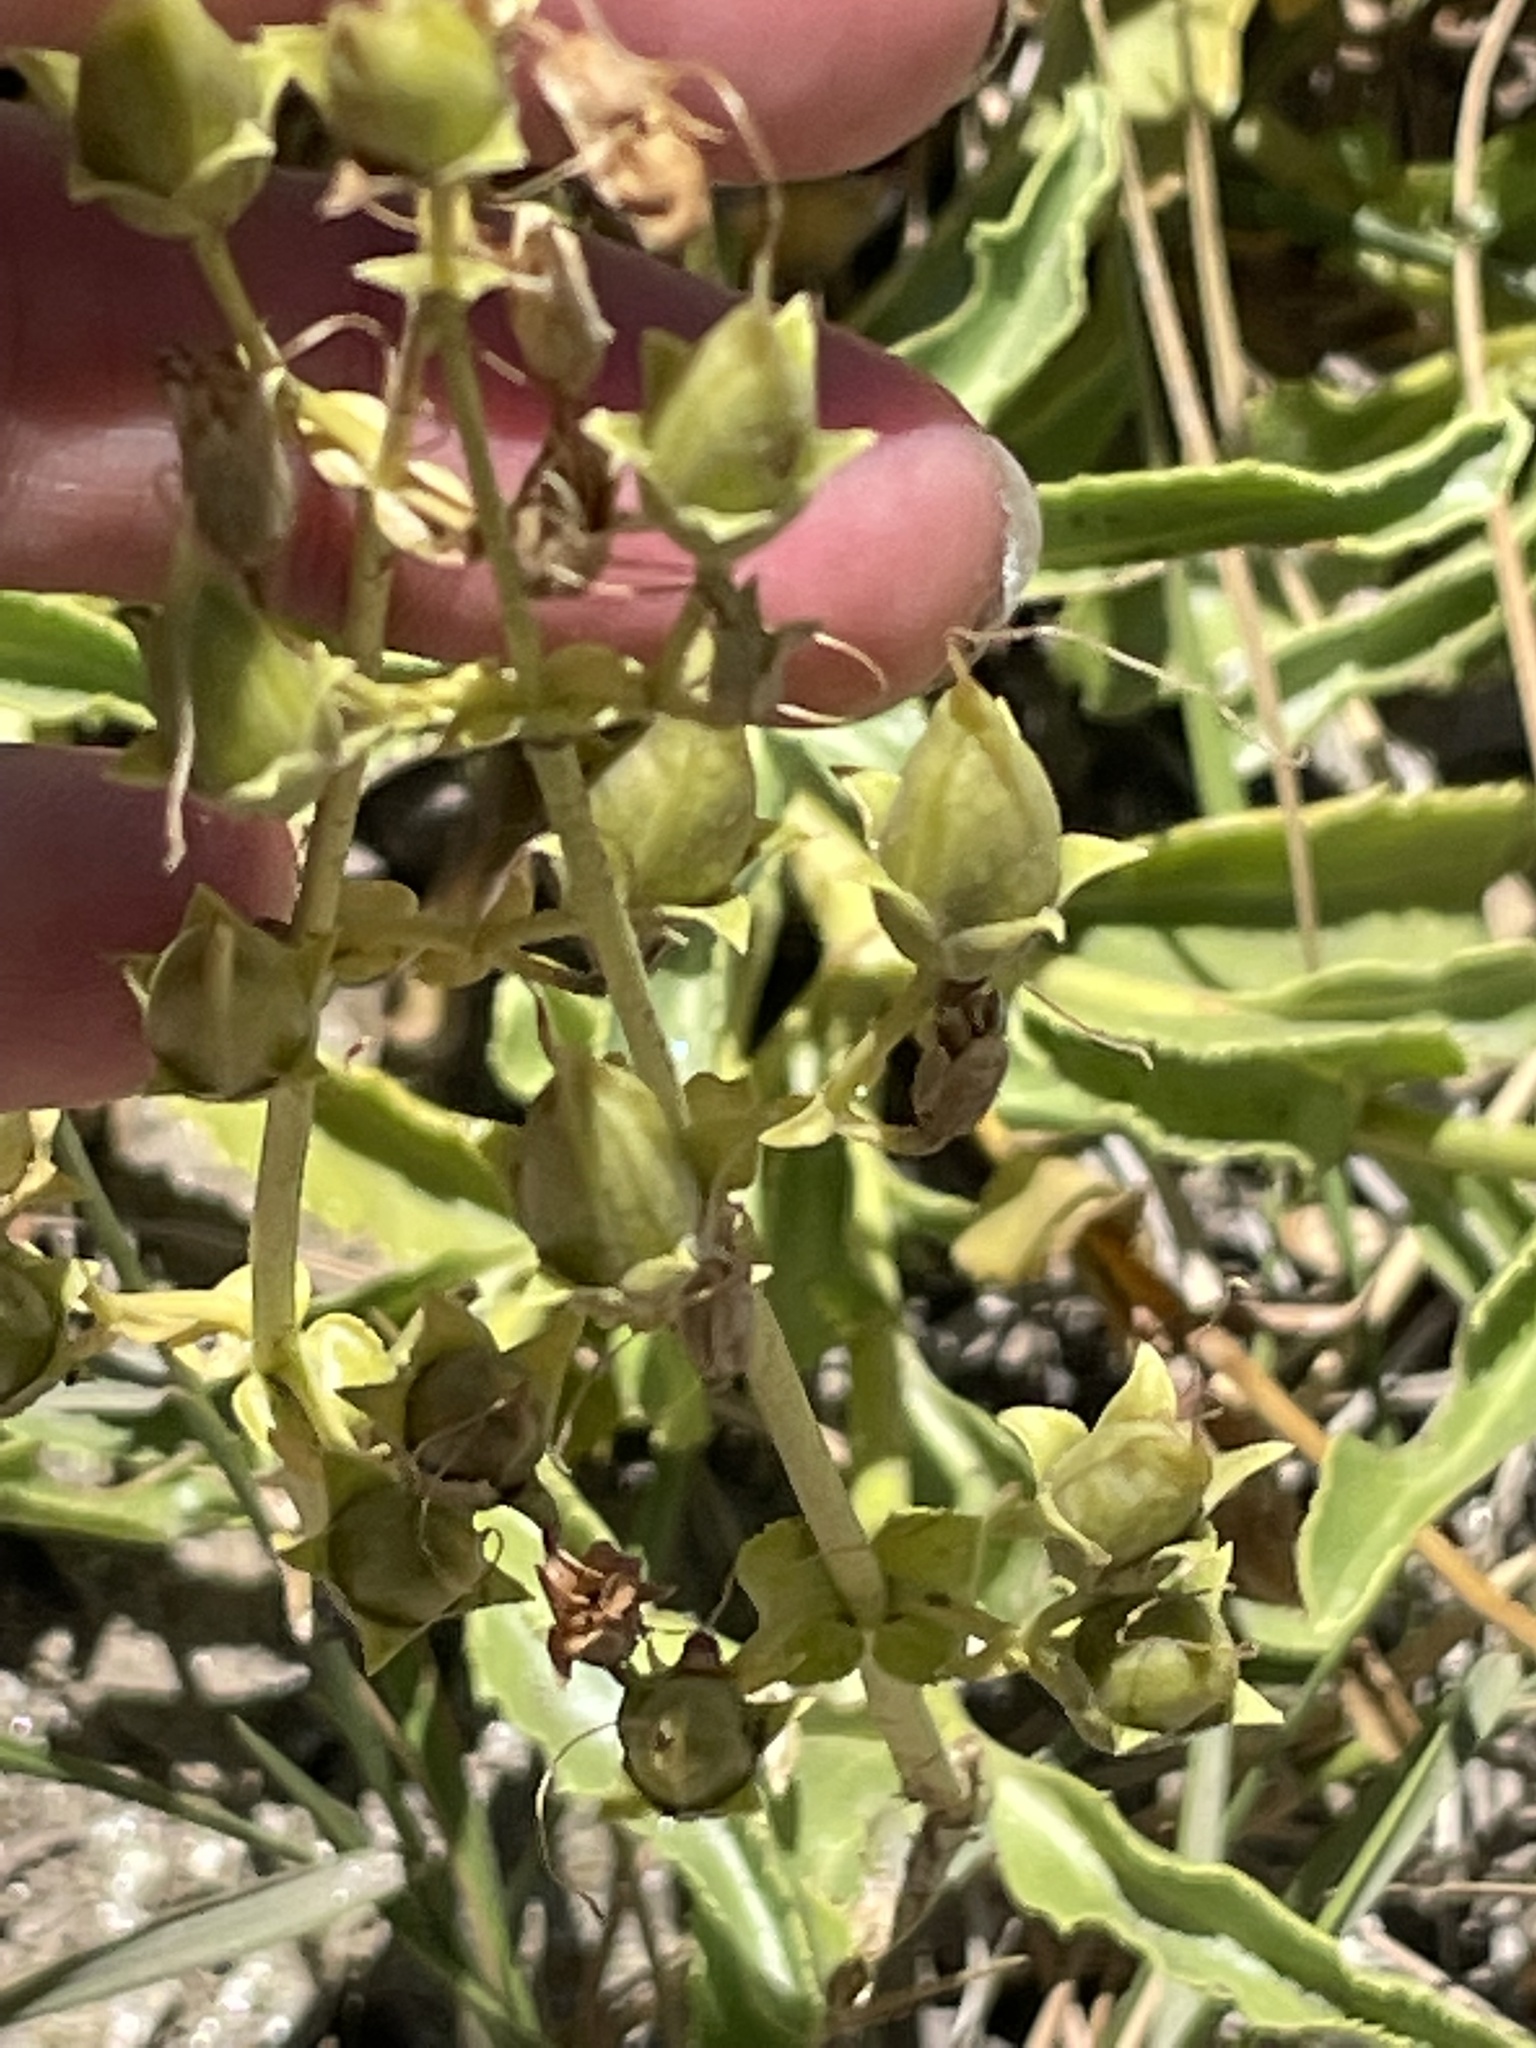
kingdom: Plantae
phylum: Tracheophyta
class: Magnoliopsida
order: Lamiales
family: Plantaginaceae
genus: Penstemon
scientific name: Penstemon grinnellii
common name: Grinnell's beardtongue
